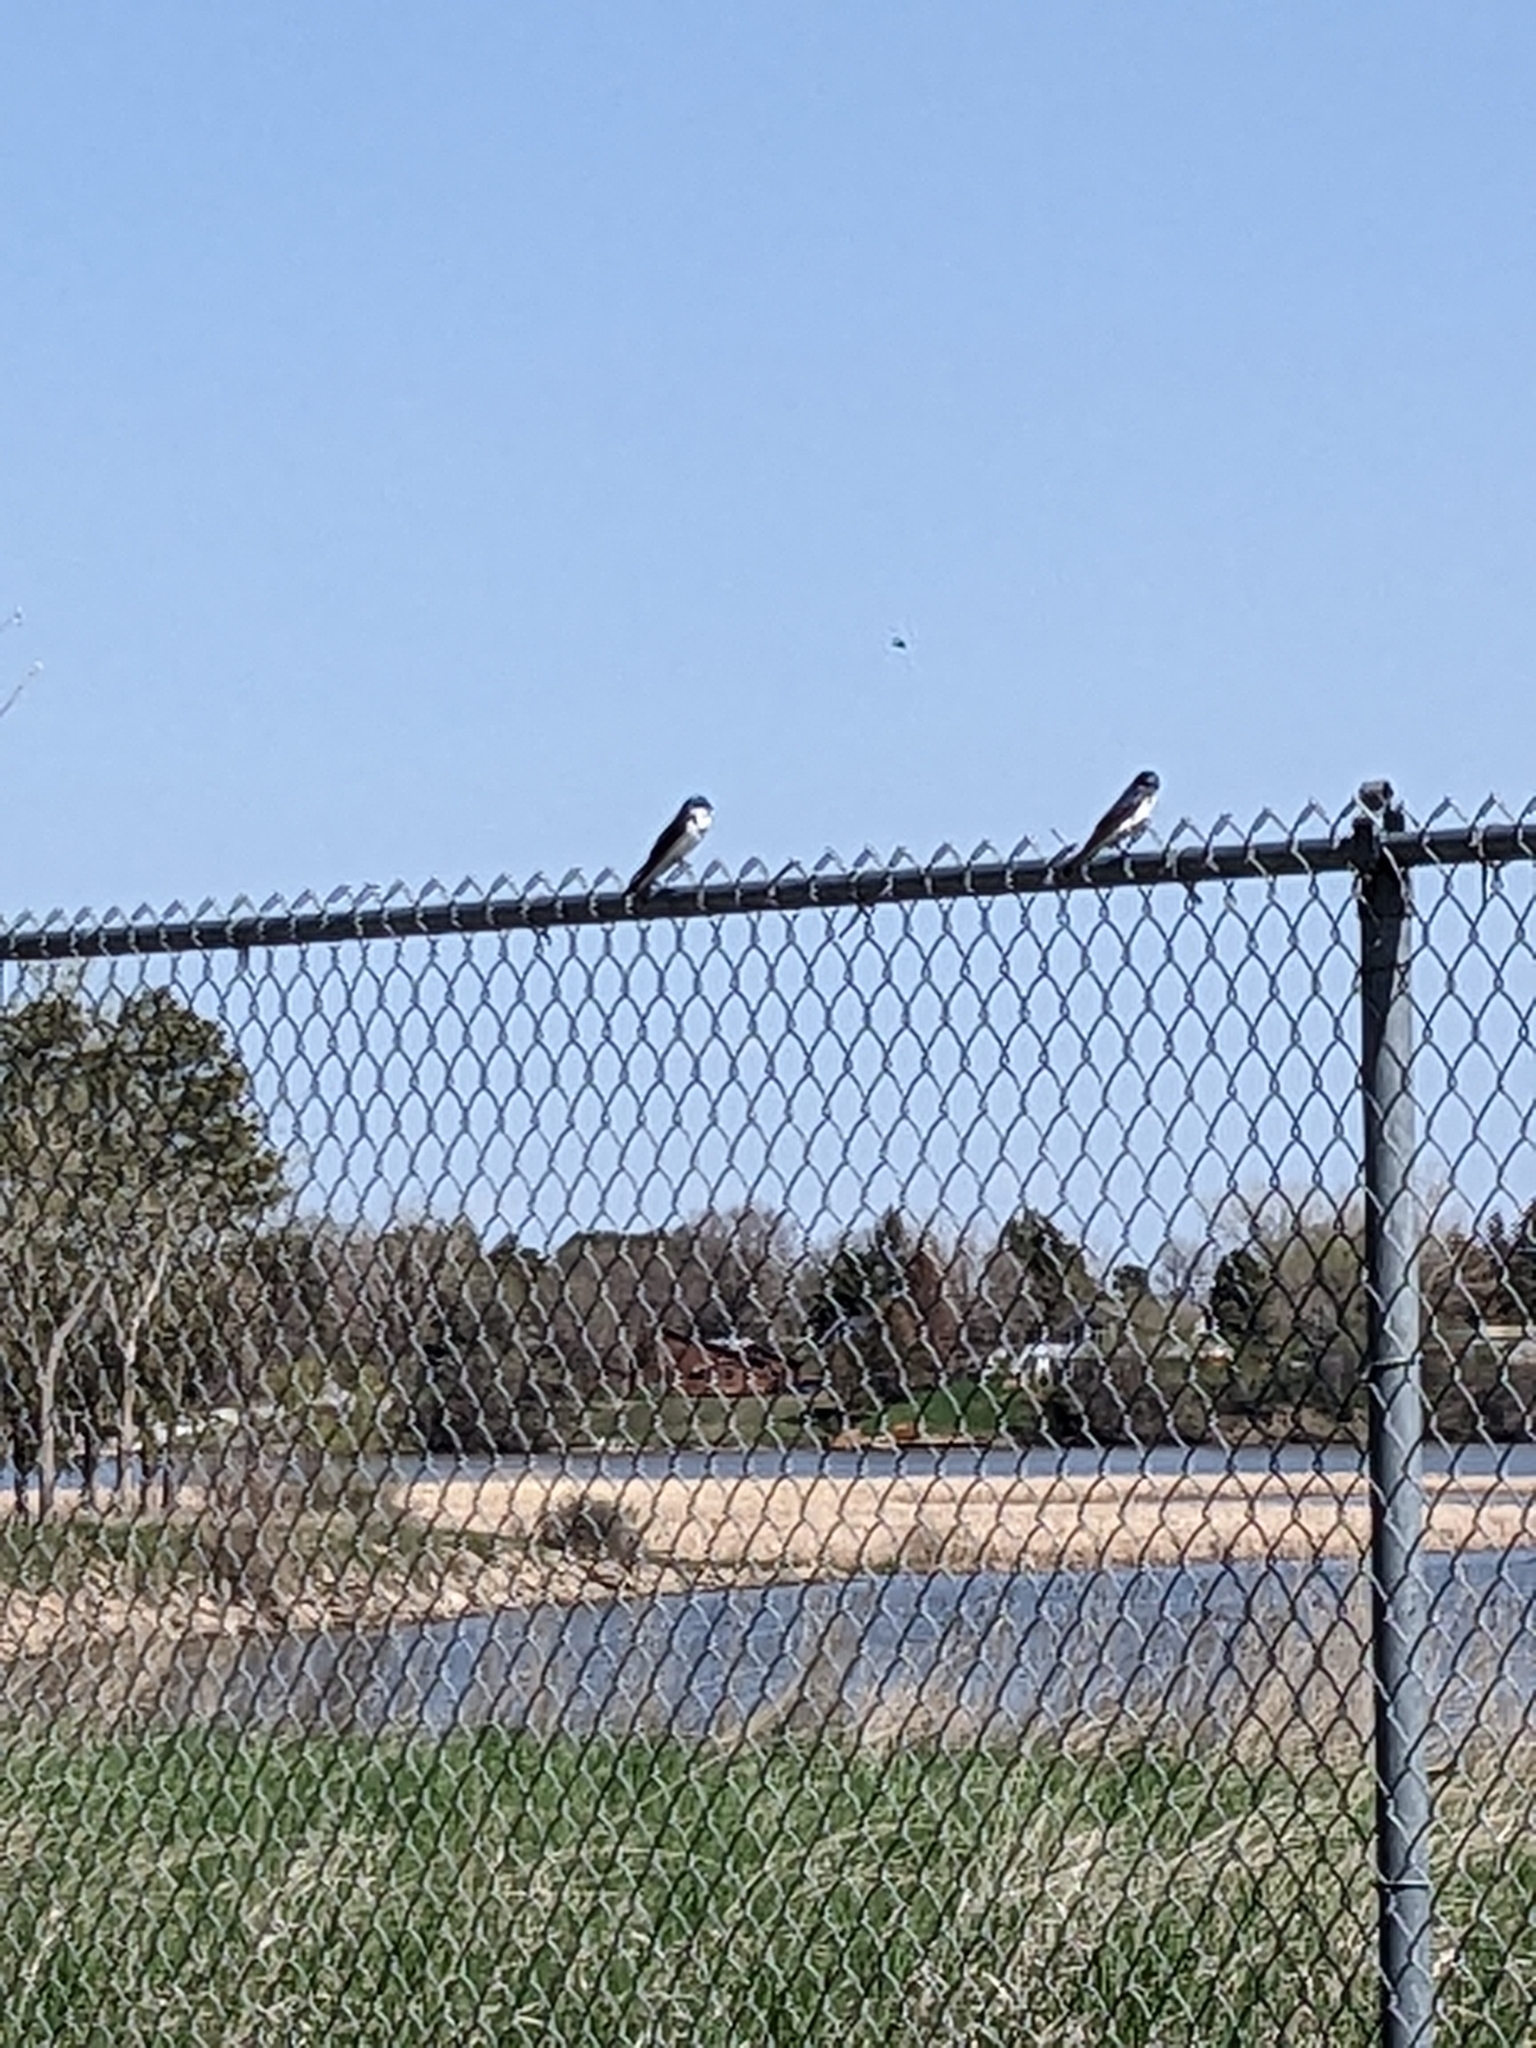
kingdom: Animalia
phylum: Chordata
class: Aves
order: Passeriformes
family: Hirundinidae
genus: Tachycineta
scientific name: Tachycineta bicolor
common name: Tree swallow
